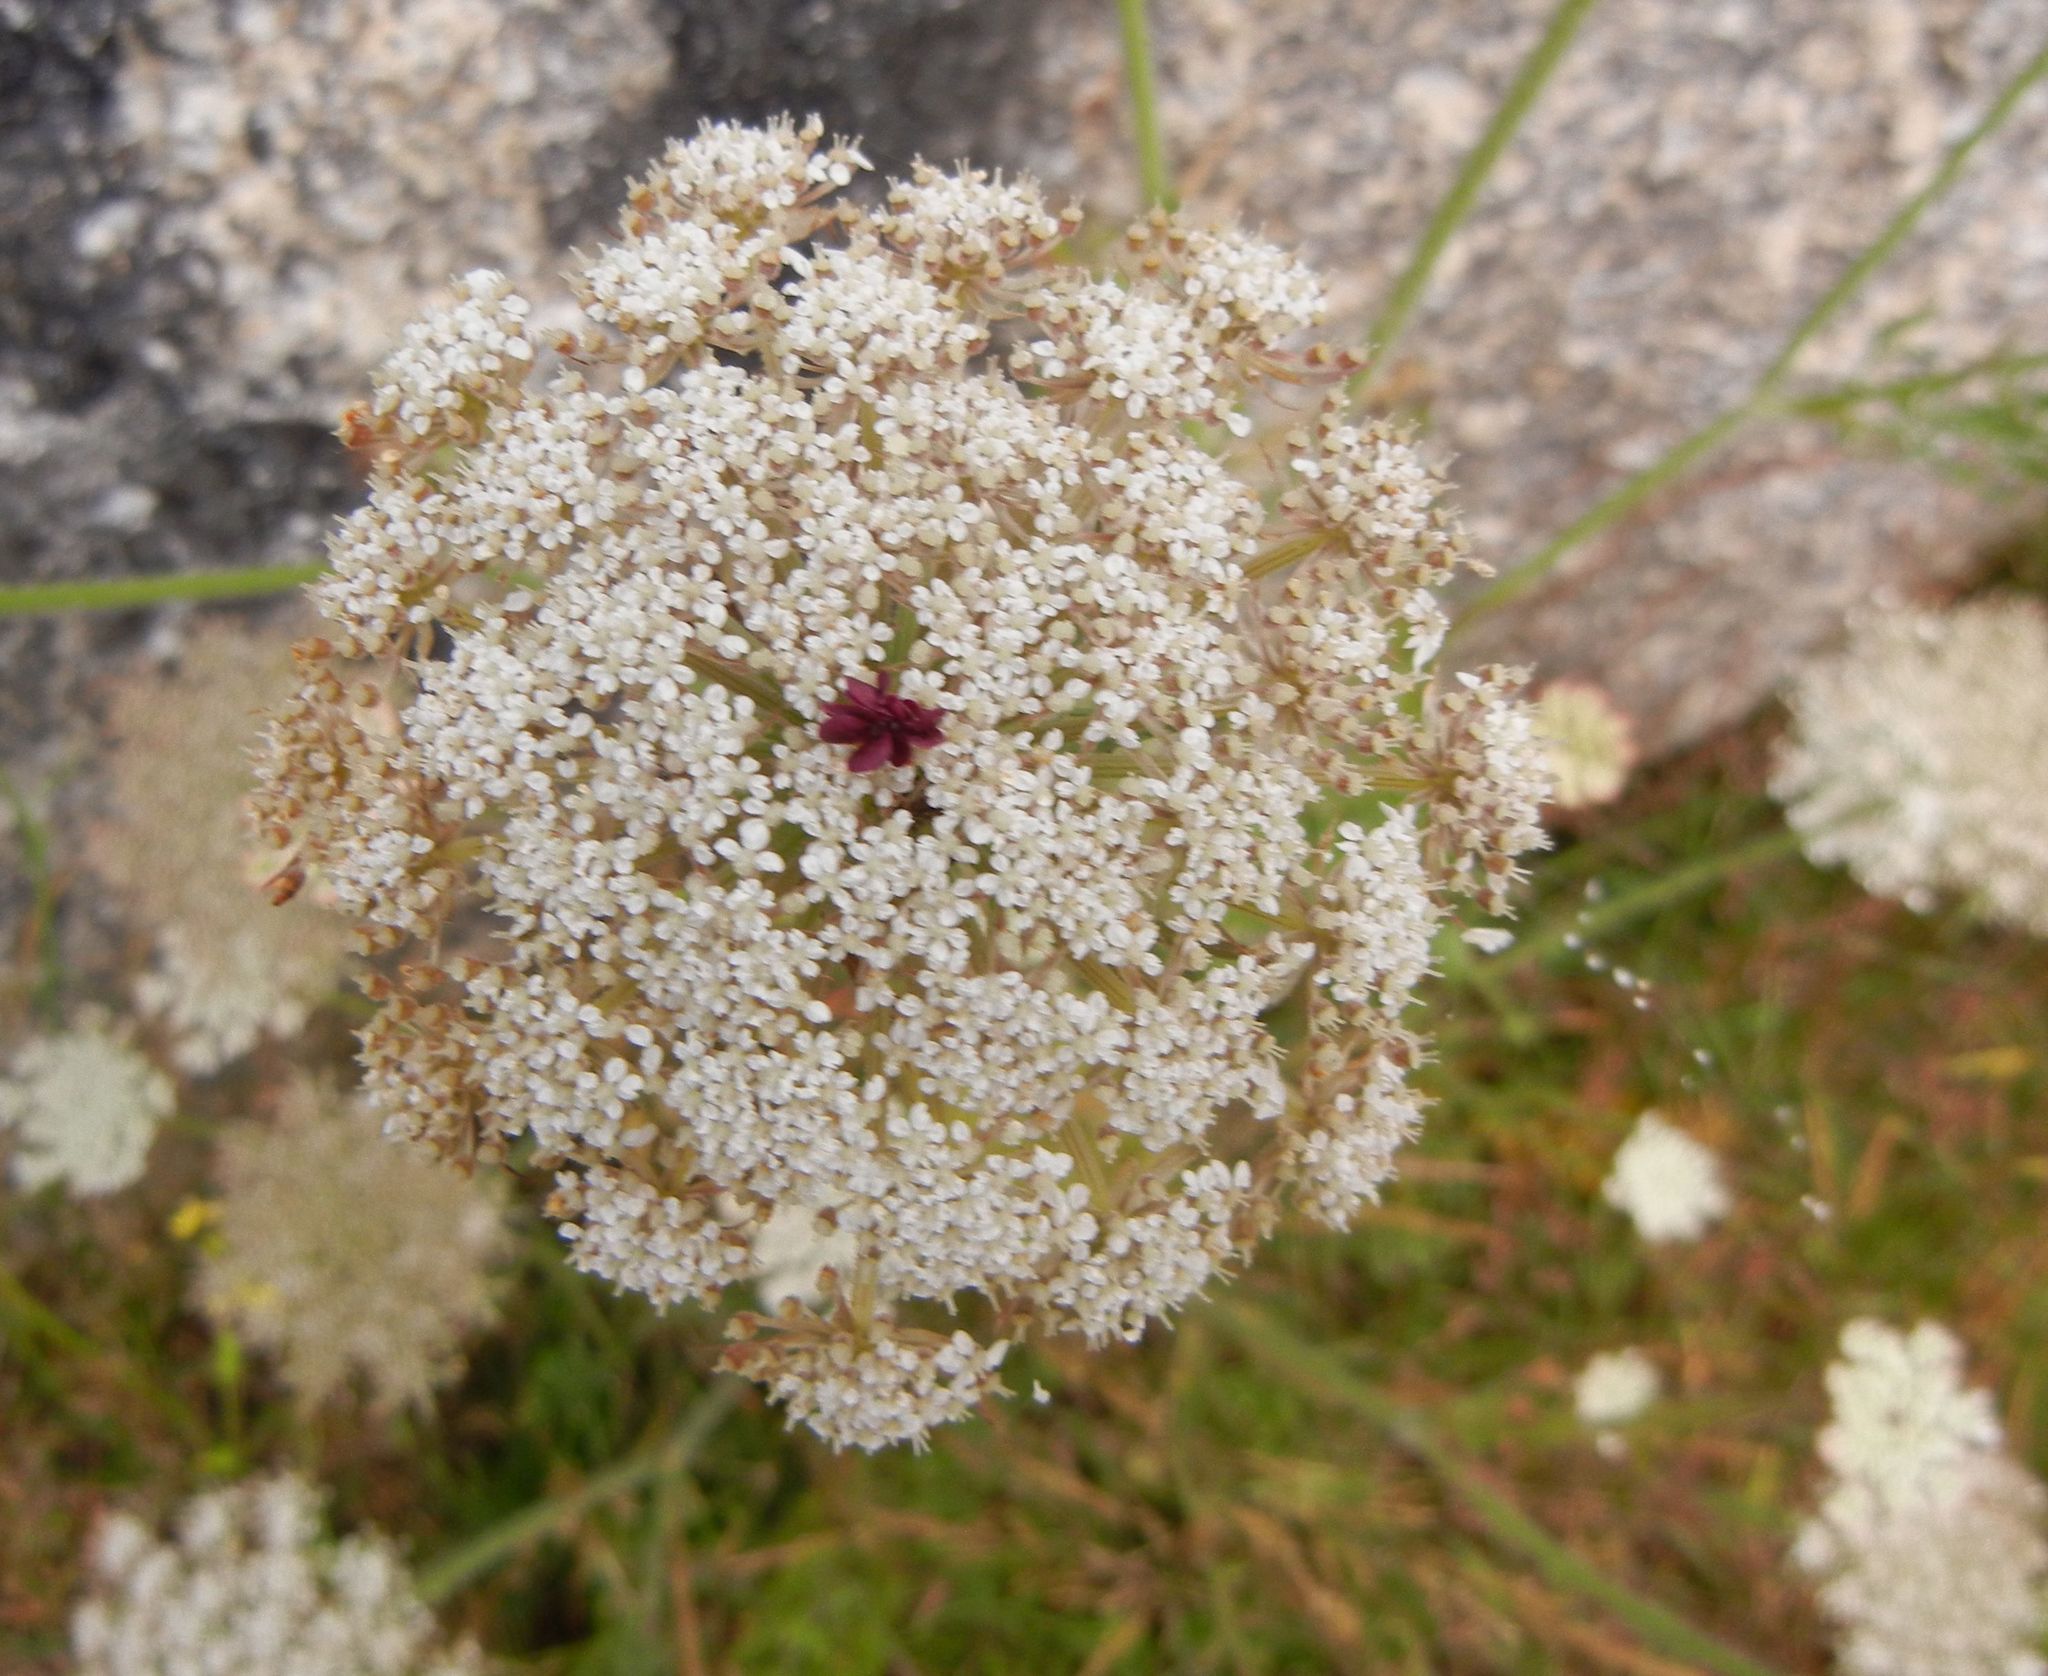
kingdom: Plantae
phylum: Tracheophyta
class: Magnoliopsida
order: Apiales
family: Apiaceae
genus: Daucus
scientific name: Daucus carota
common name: Wild carrot
